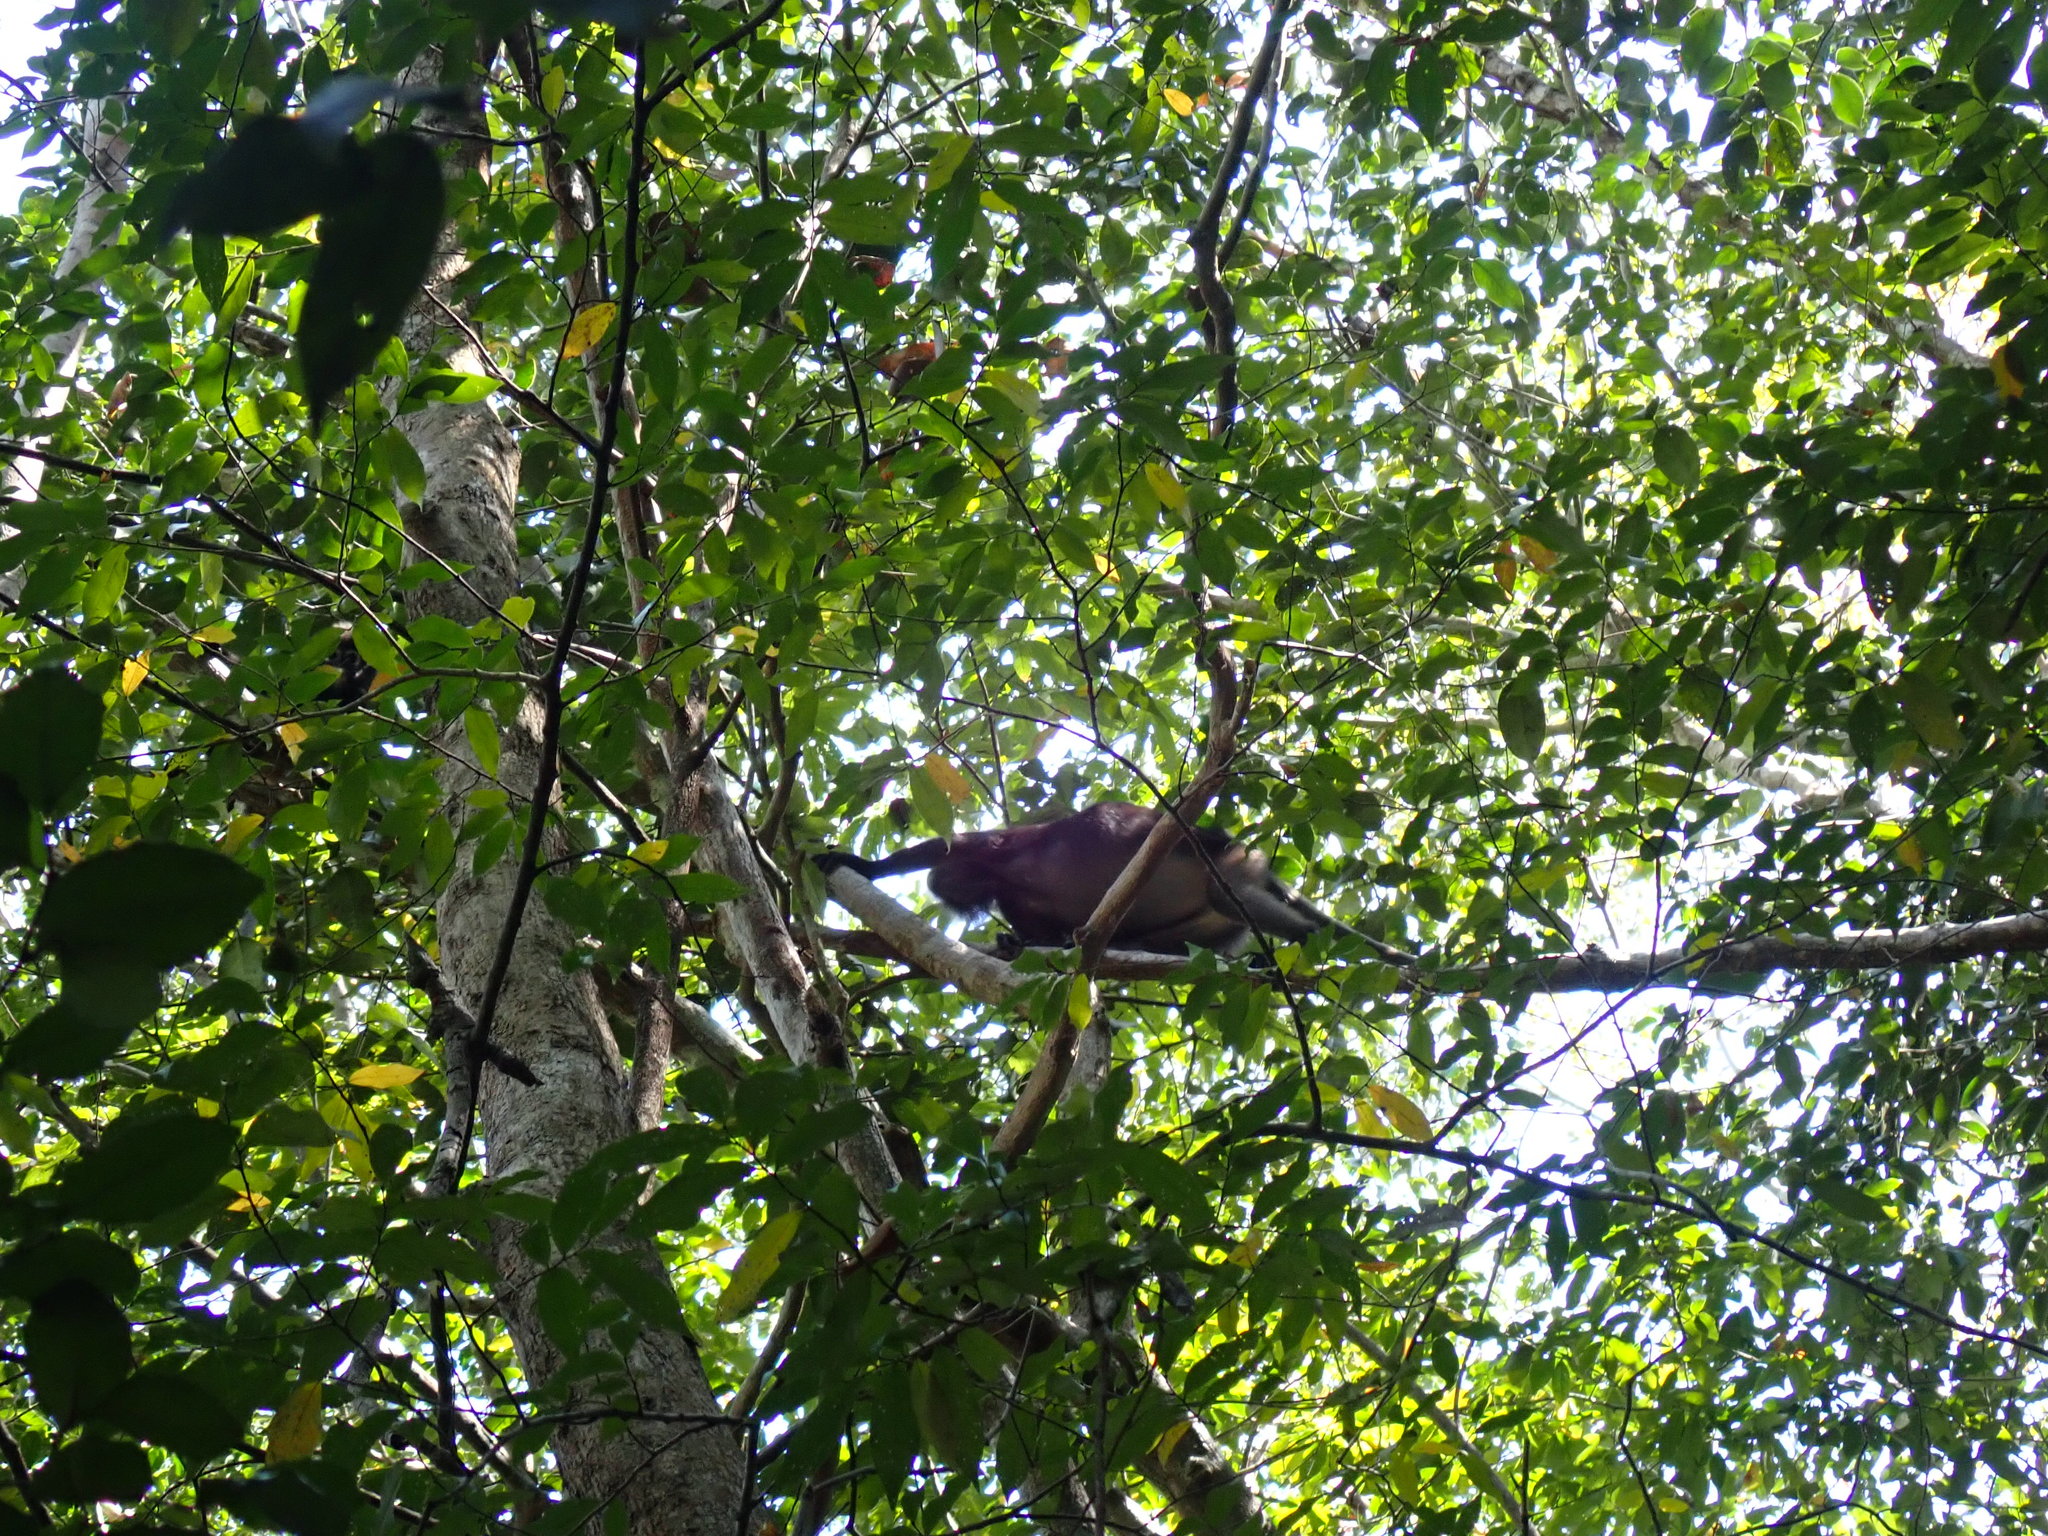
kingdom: Animalia
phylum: Chordata
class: Mammalia
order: Primates
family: Cercopithecidae
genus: Trachypithecus
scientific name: Trachypithecus obscurus
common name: Dusky leaf-monkey
